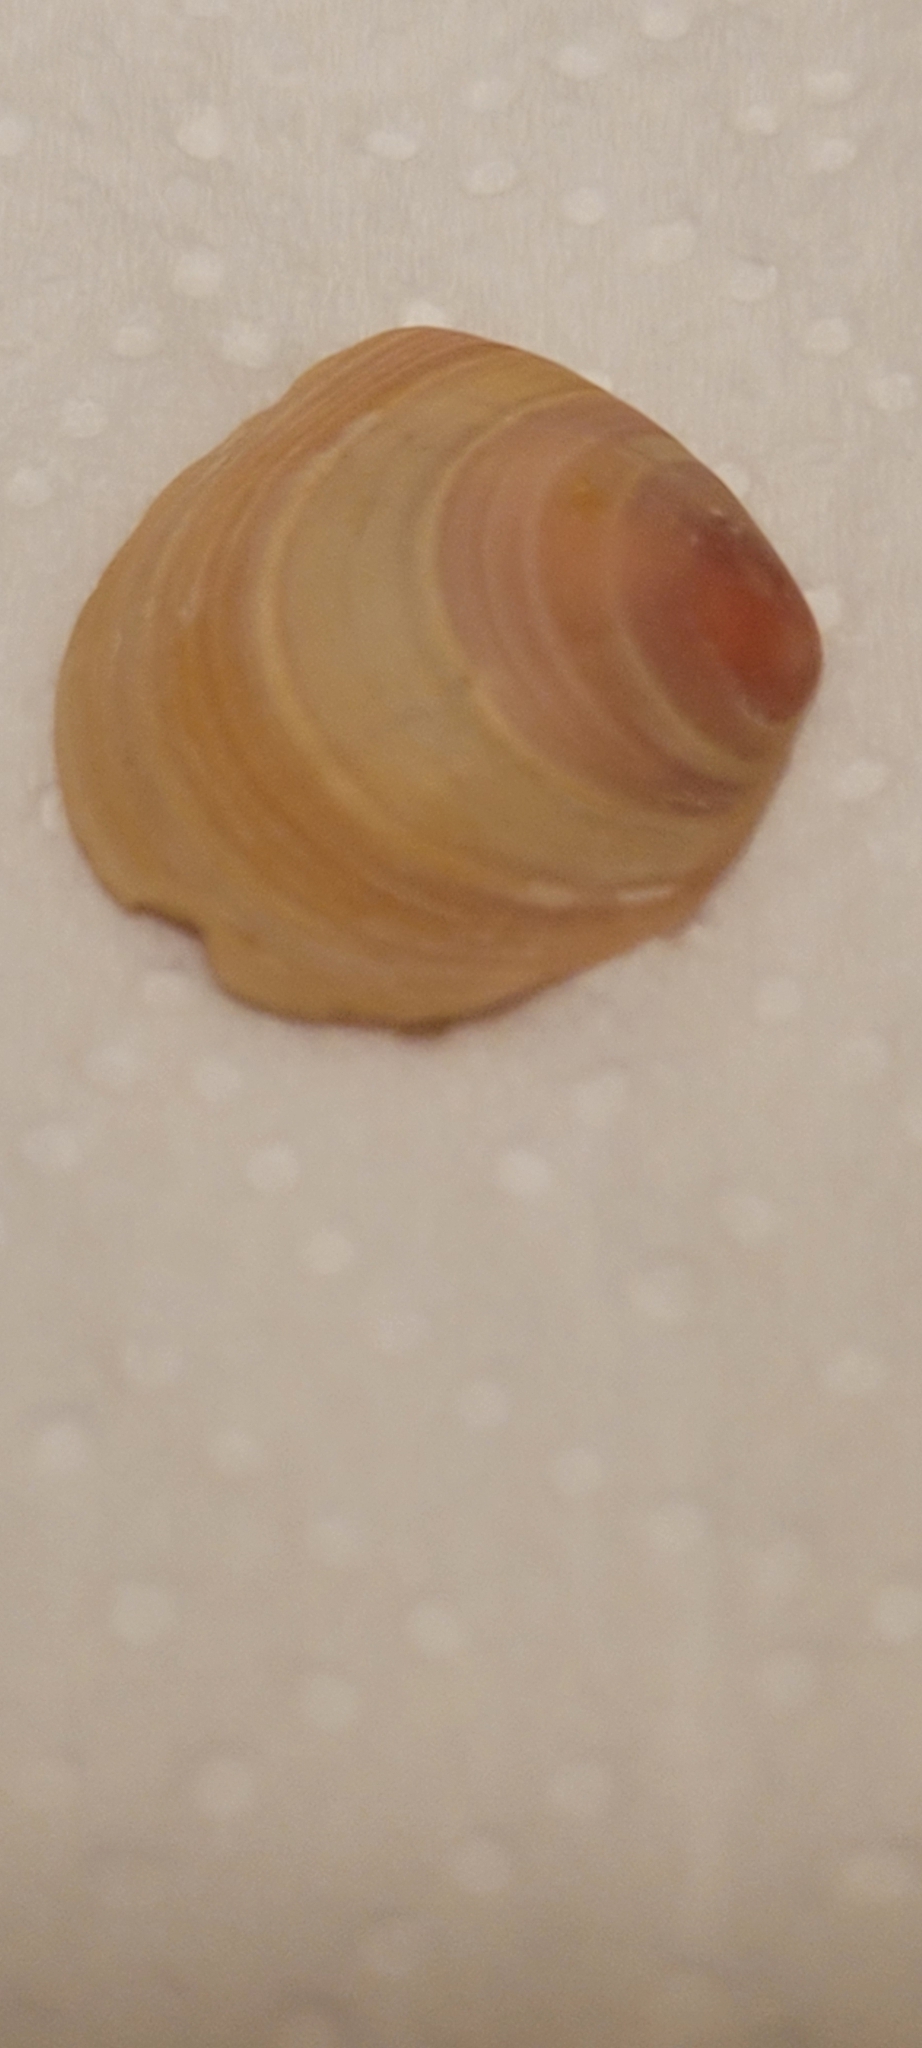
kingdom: Animalia
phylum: Mollusca
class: Bivalvia
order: Cardiida
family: Tellinidae
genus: Macoma
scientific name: Macoma balthica
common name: Baltic tellin
